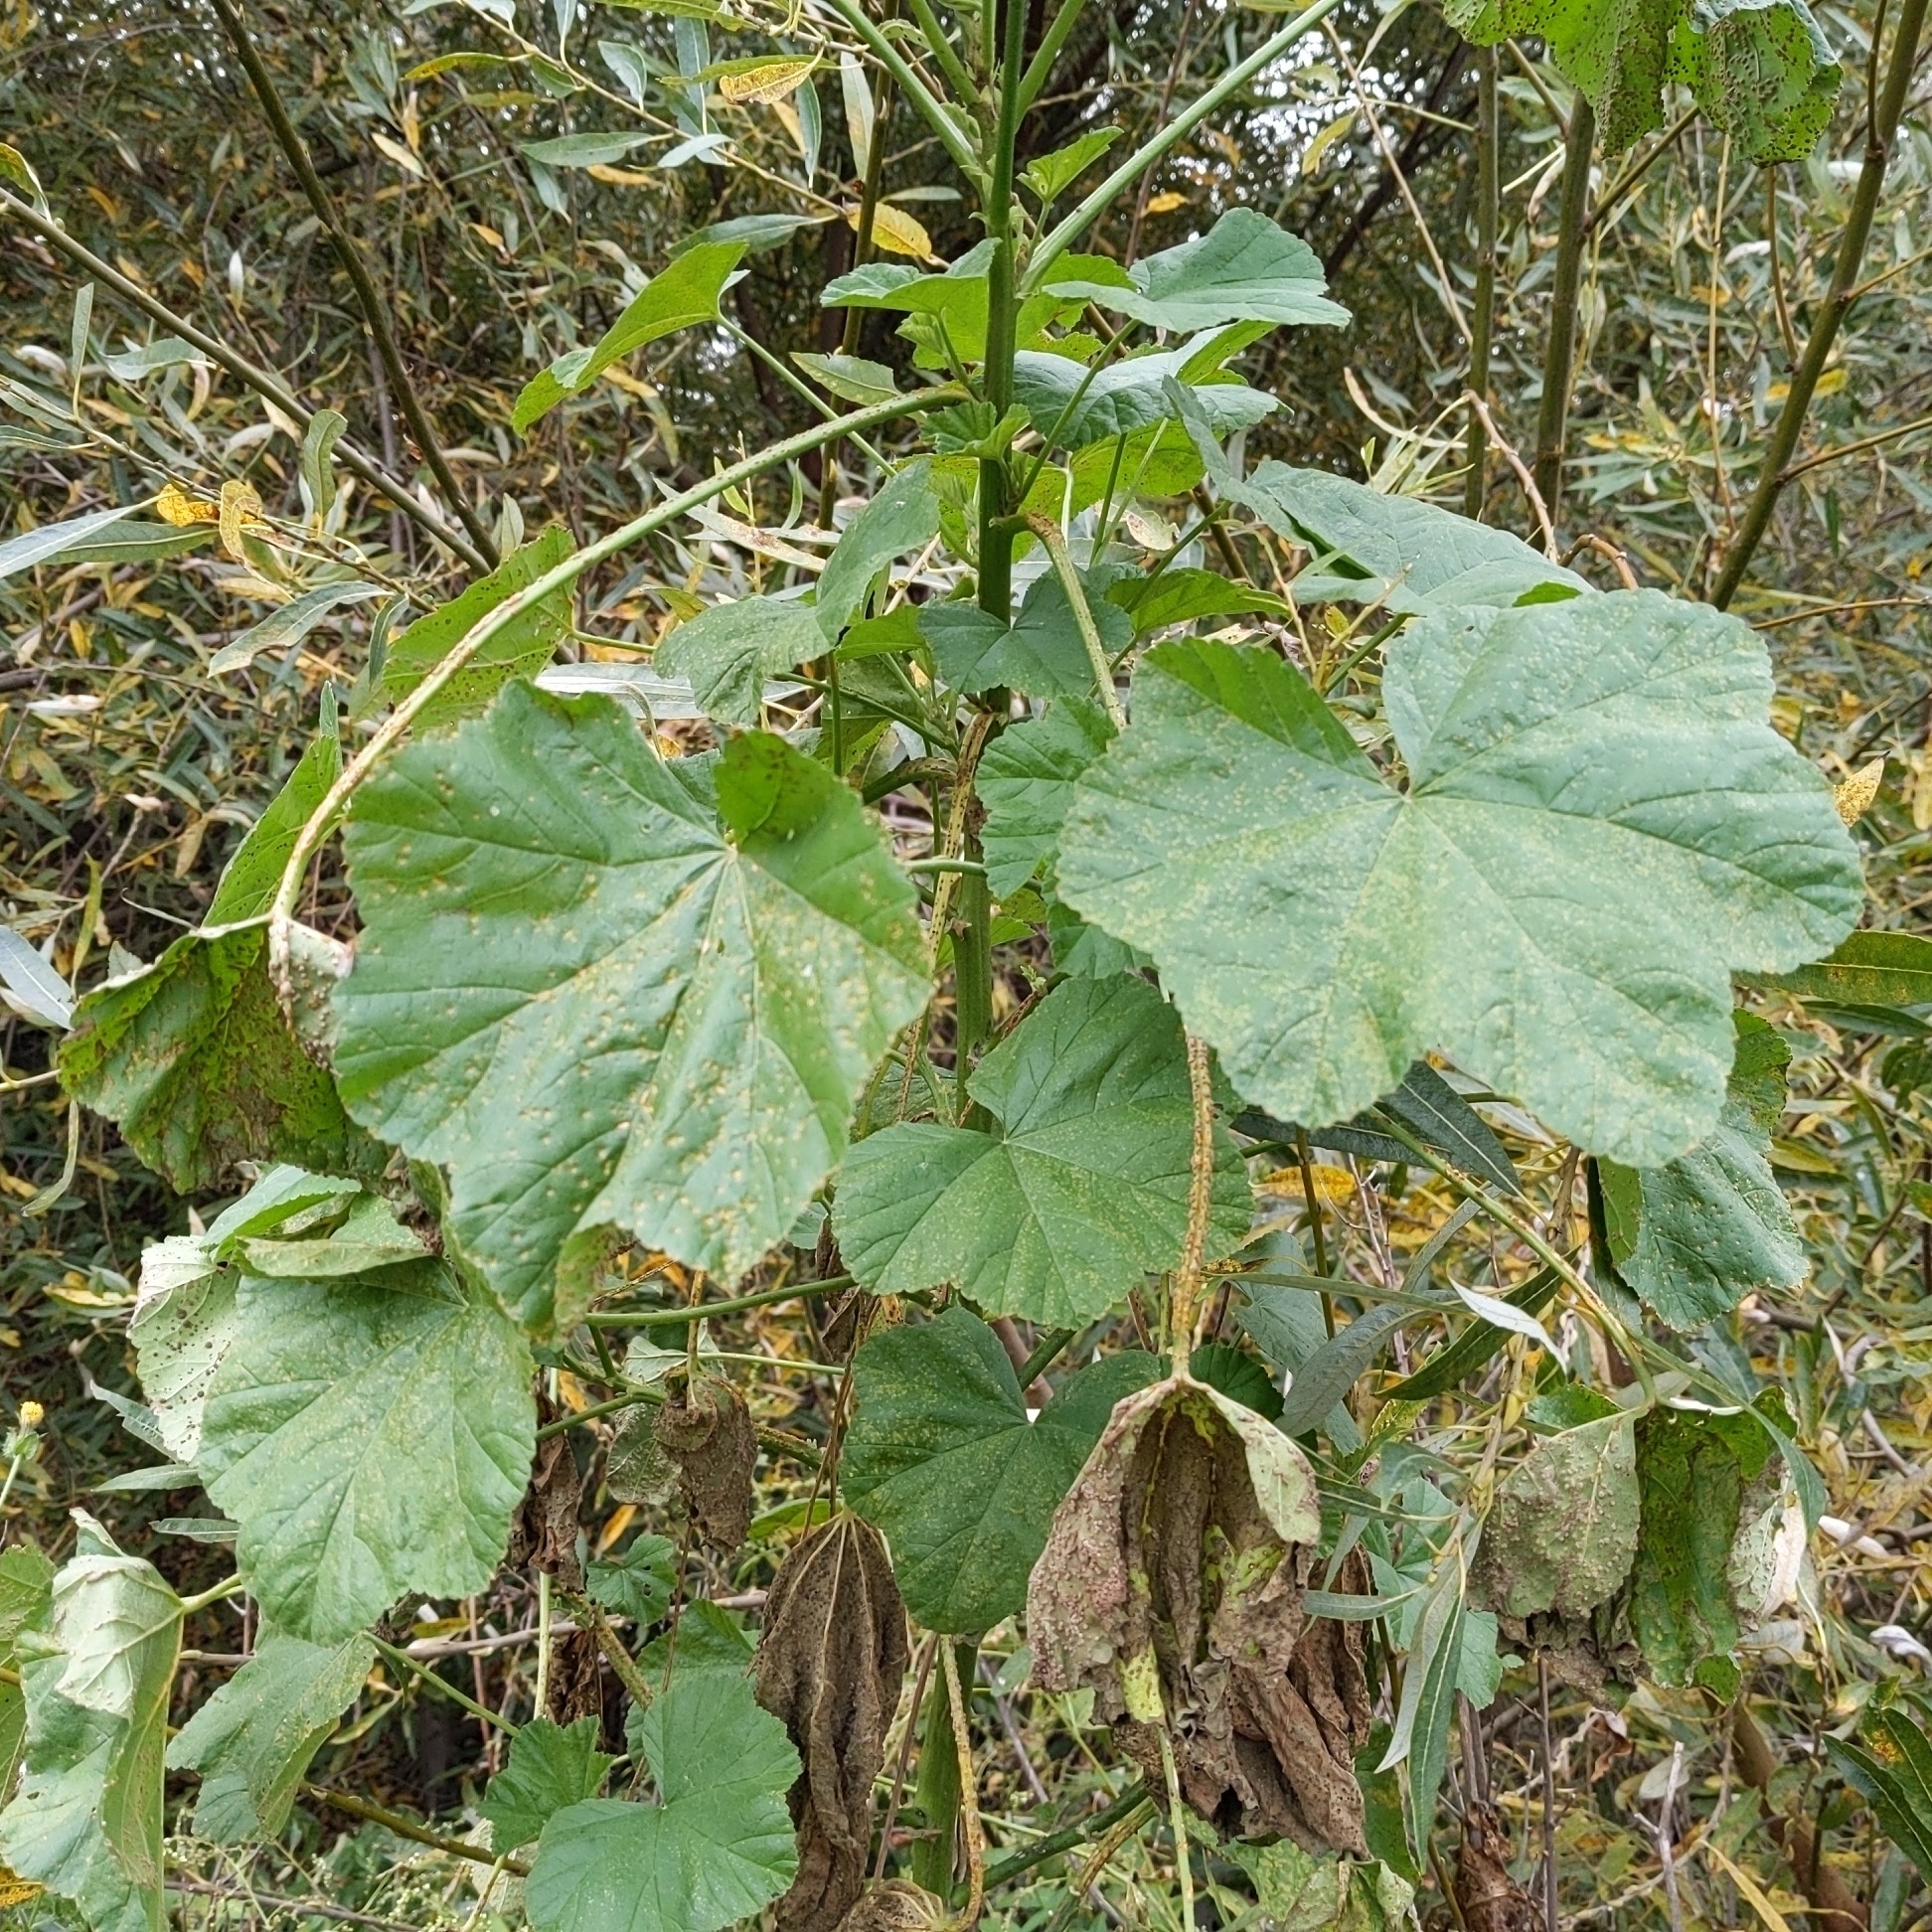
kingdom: Plantae
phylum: Tracheophyta
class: Magnoliopsida
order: Malvales
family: Malvaceae
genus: Malva
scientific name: Malva
